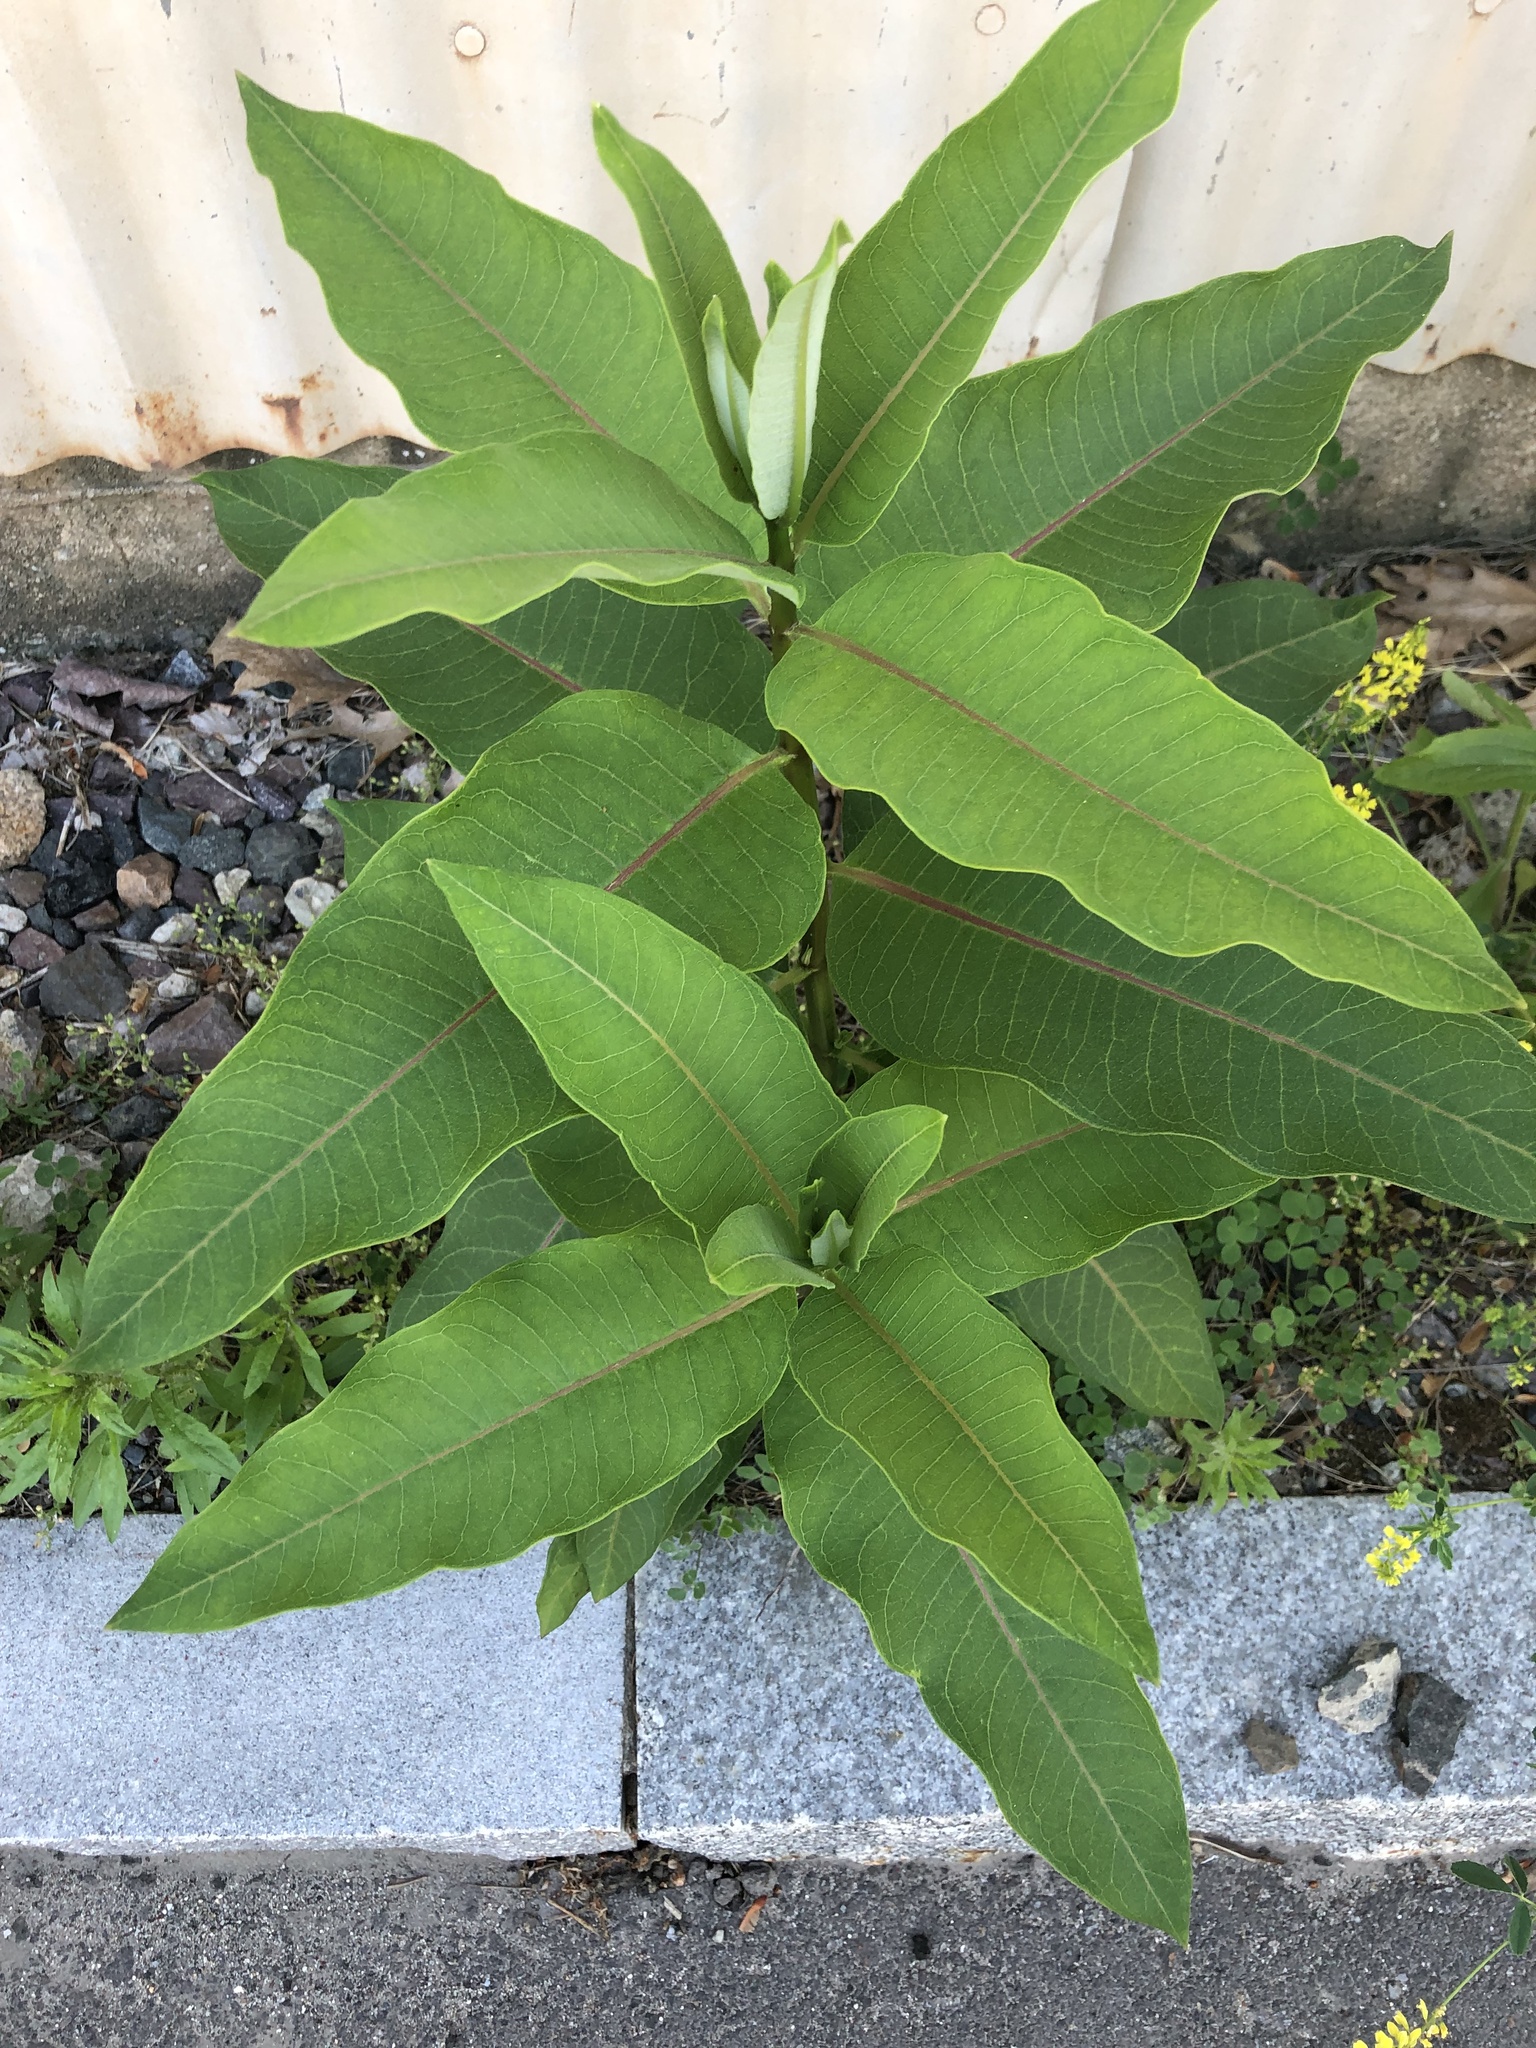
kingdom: Plantae
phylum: Tracheophyta
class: Magnoliopsida
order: Gentianales
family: Apocynaceae
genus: Asclepias
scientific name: Asclepias syriaca
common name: Common milkweed
